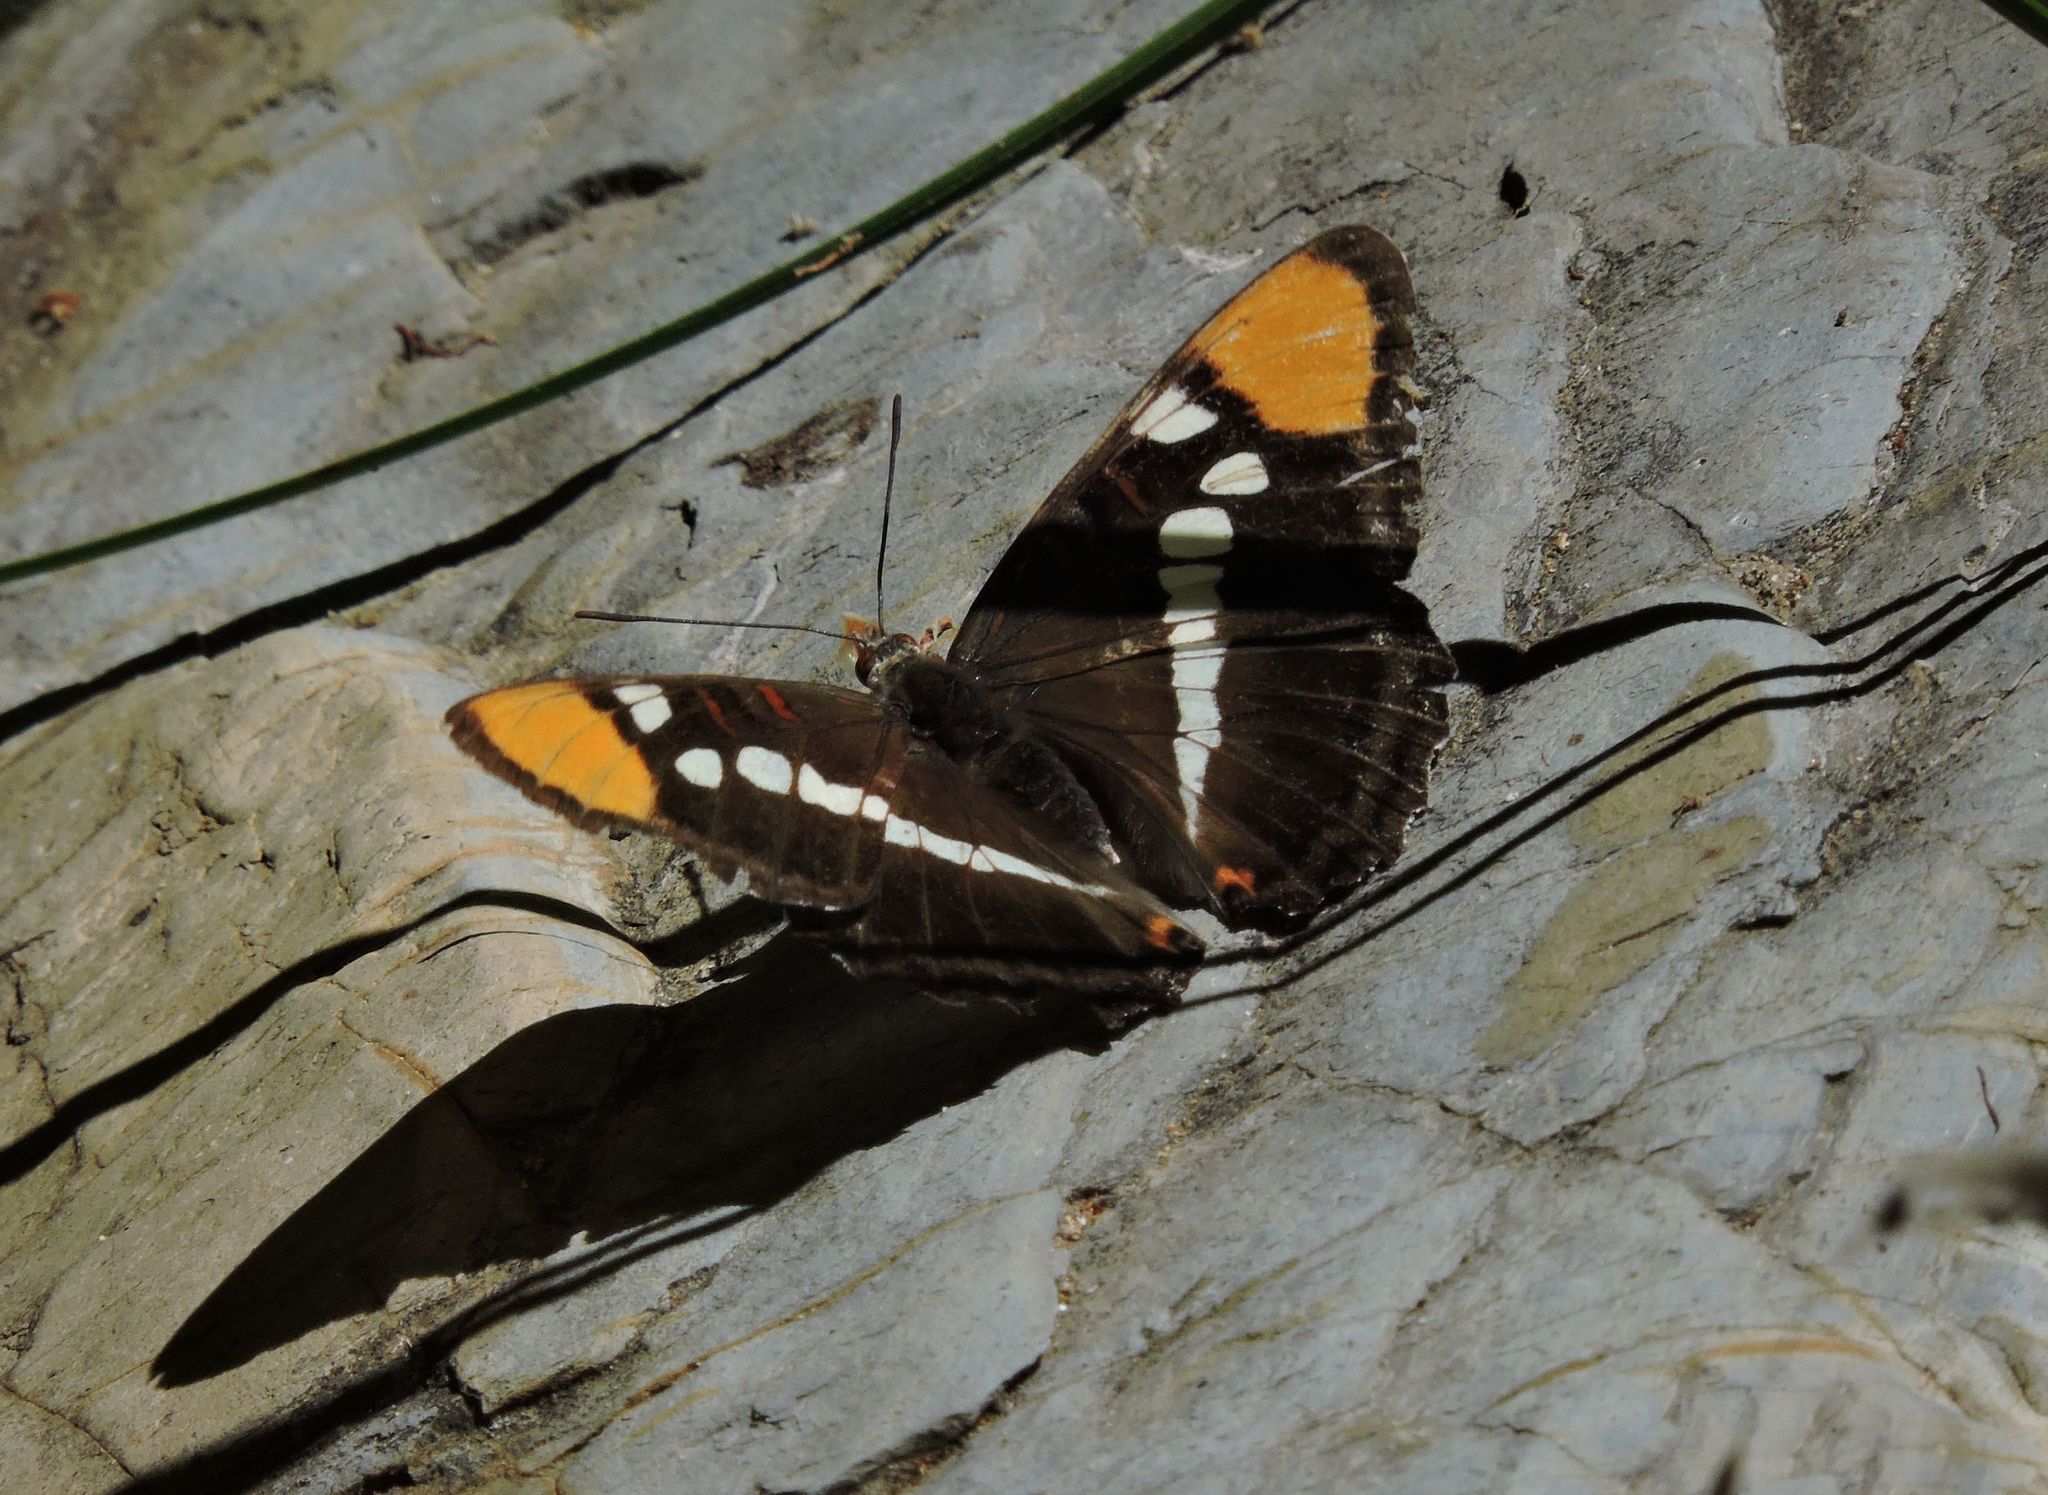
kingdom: Animalia
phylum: Arthropoda
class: Insecta
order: Lepidoptera
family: Nymphalidae
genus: Limenitis
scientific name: Limenitis bredowii
